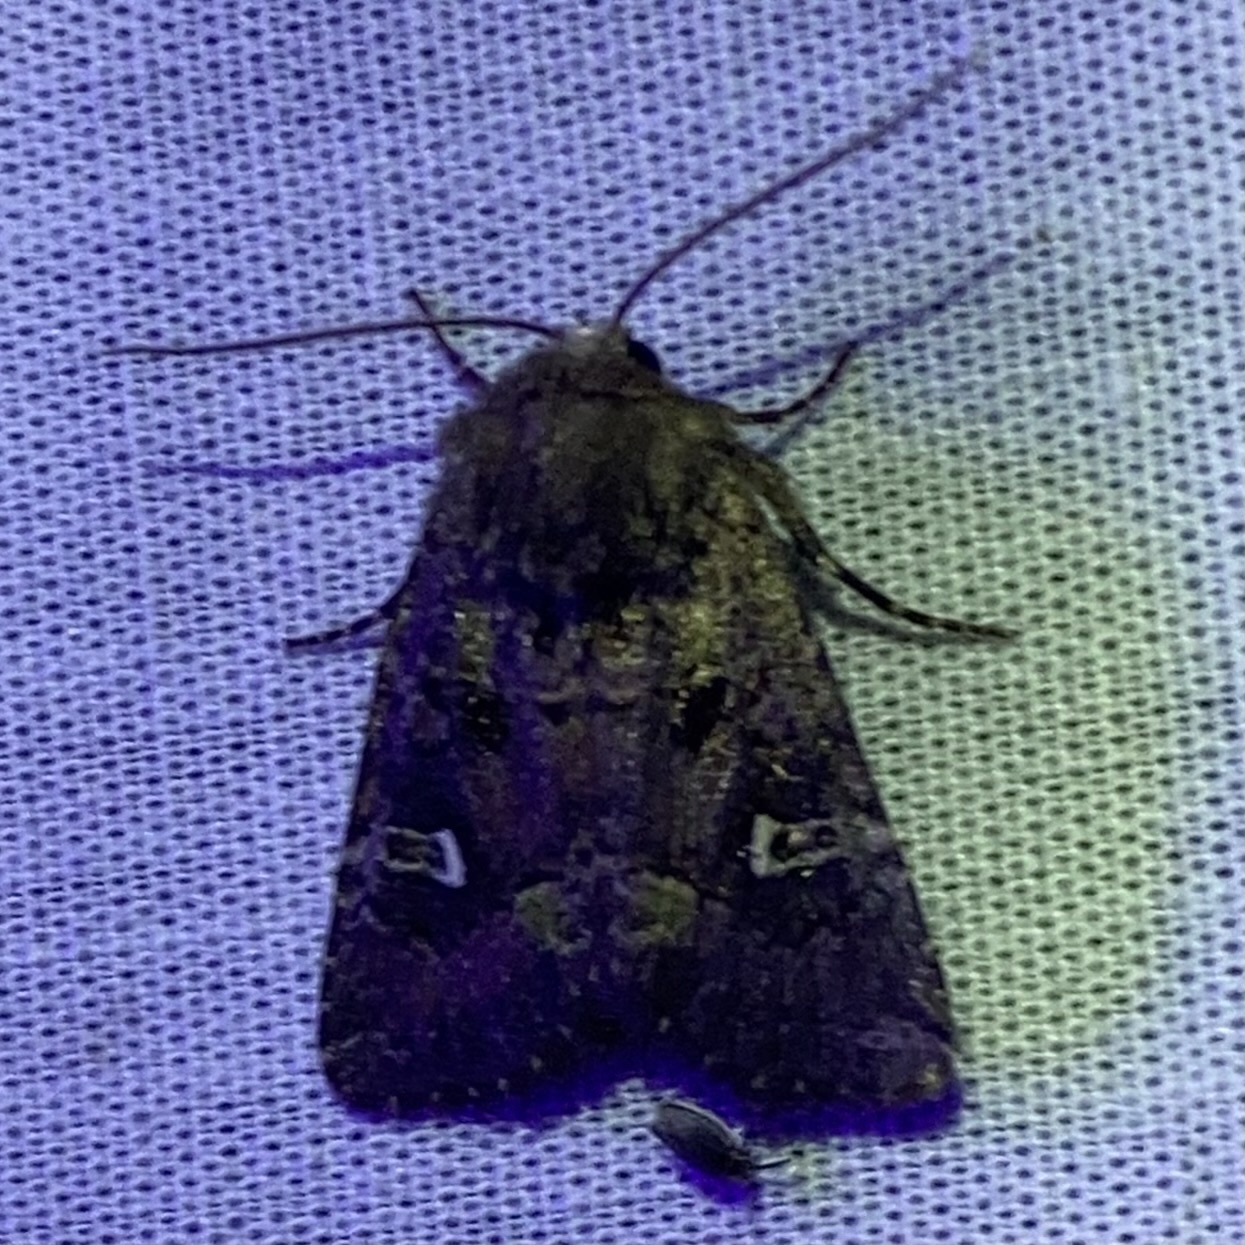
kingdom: Animalia
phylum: Arthropoda
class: Insecta
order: Lepidoptera
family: Noctuidae
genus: Lacinipolia
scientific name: Lacinipolia renigera
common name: Kidney-spotted minor
